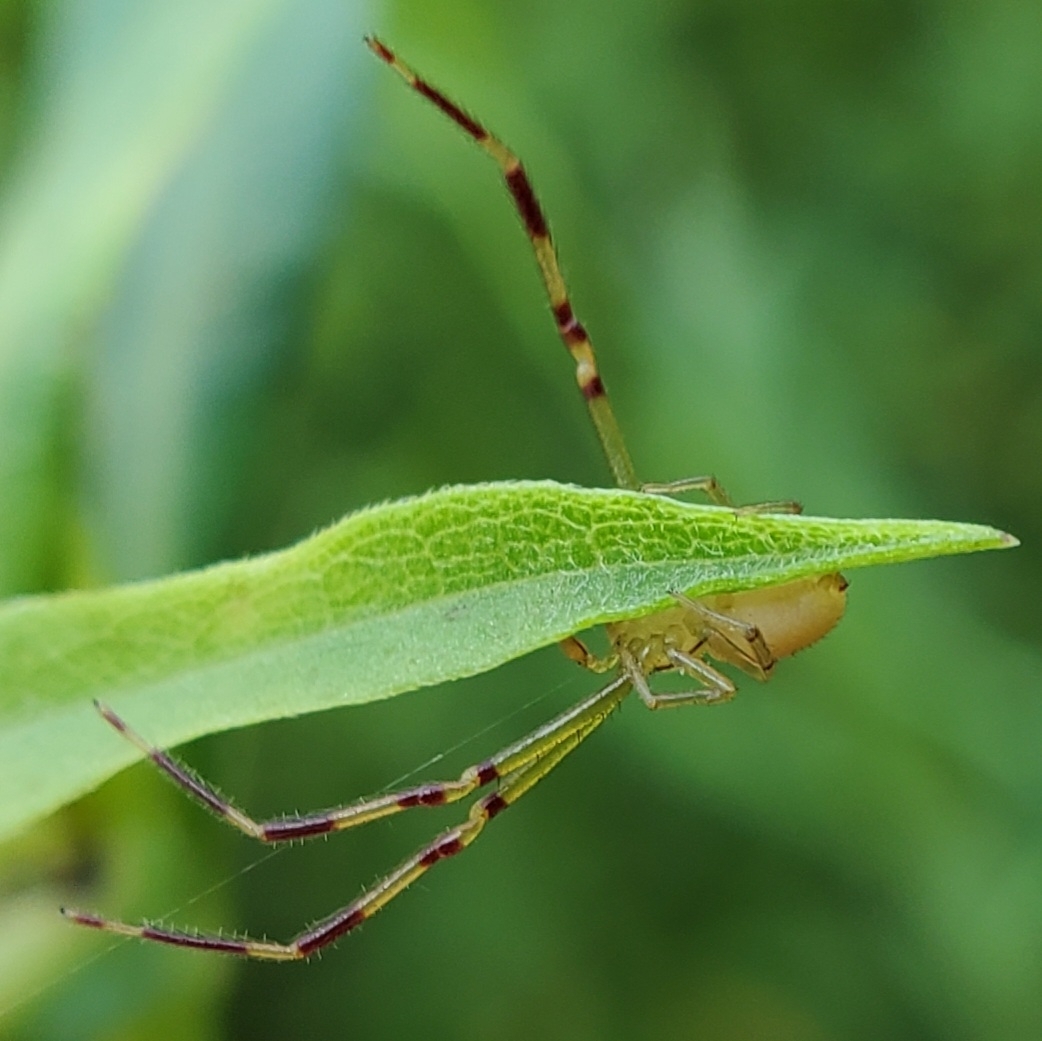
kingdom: Animalia
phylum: Arthropoda
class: Arachnida
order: Araneae
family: Thomisidae
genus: Misumessus
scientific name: Misumessus oblongus
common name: American green crab spider
